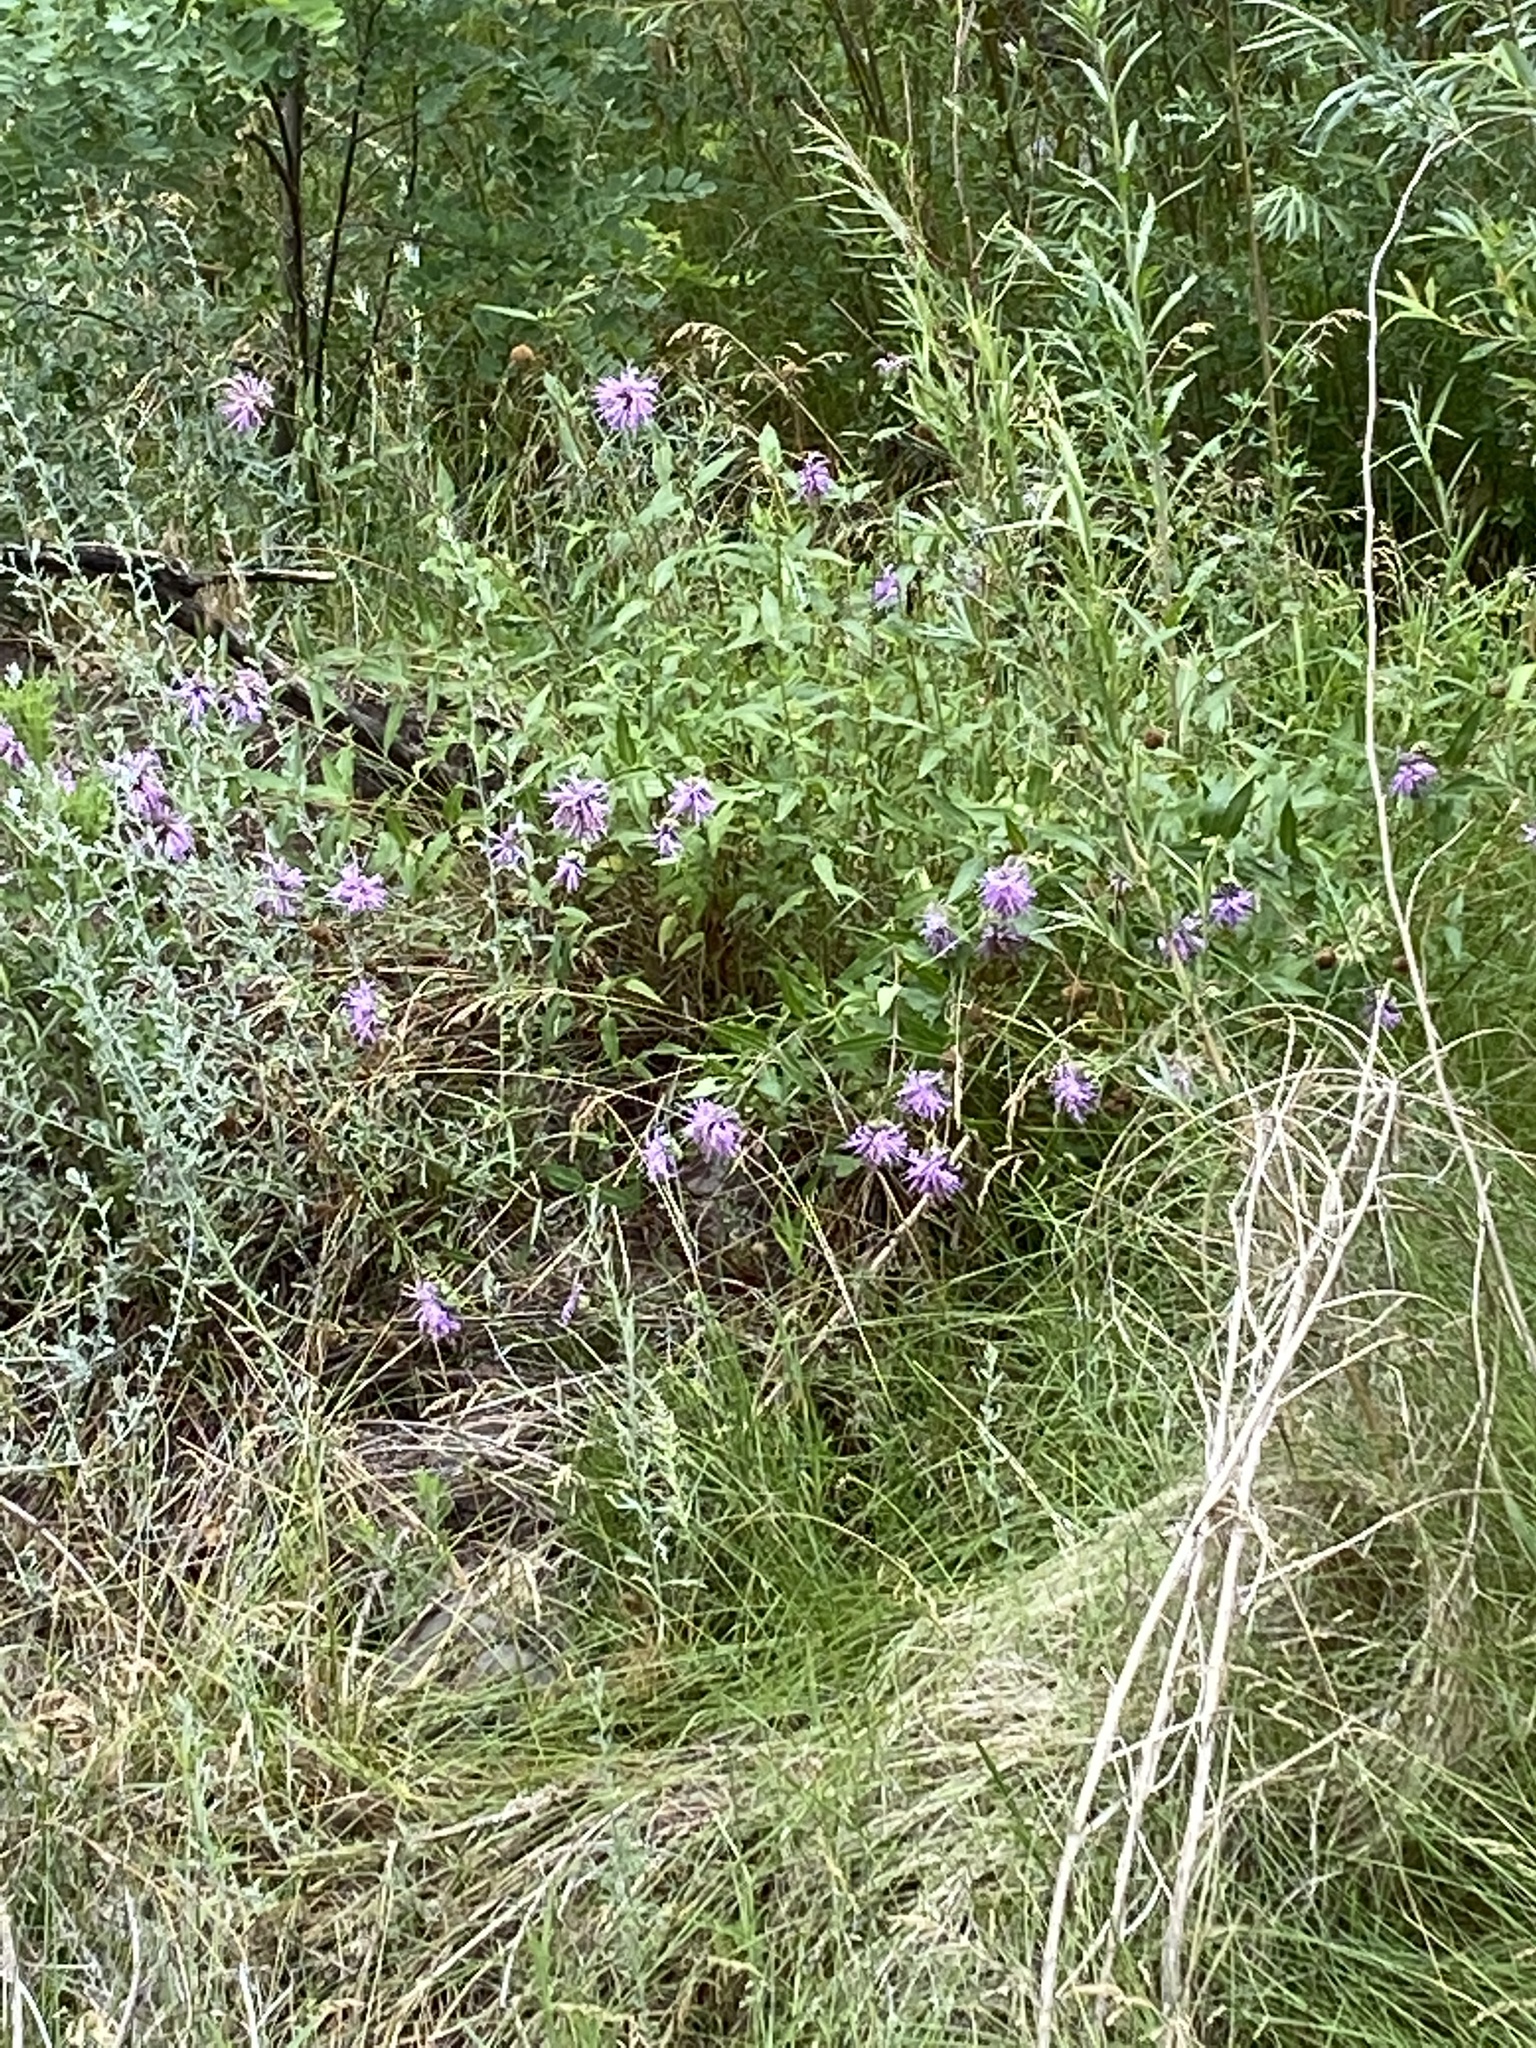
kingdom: Plantae
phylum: Tracheophyta
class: Magnoliopsida
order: Lamiales
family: Lamiaceae
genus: Monarda
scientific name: Monarda fistulosa
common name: Purple beebalm
